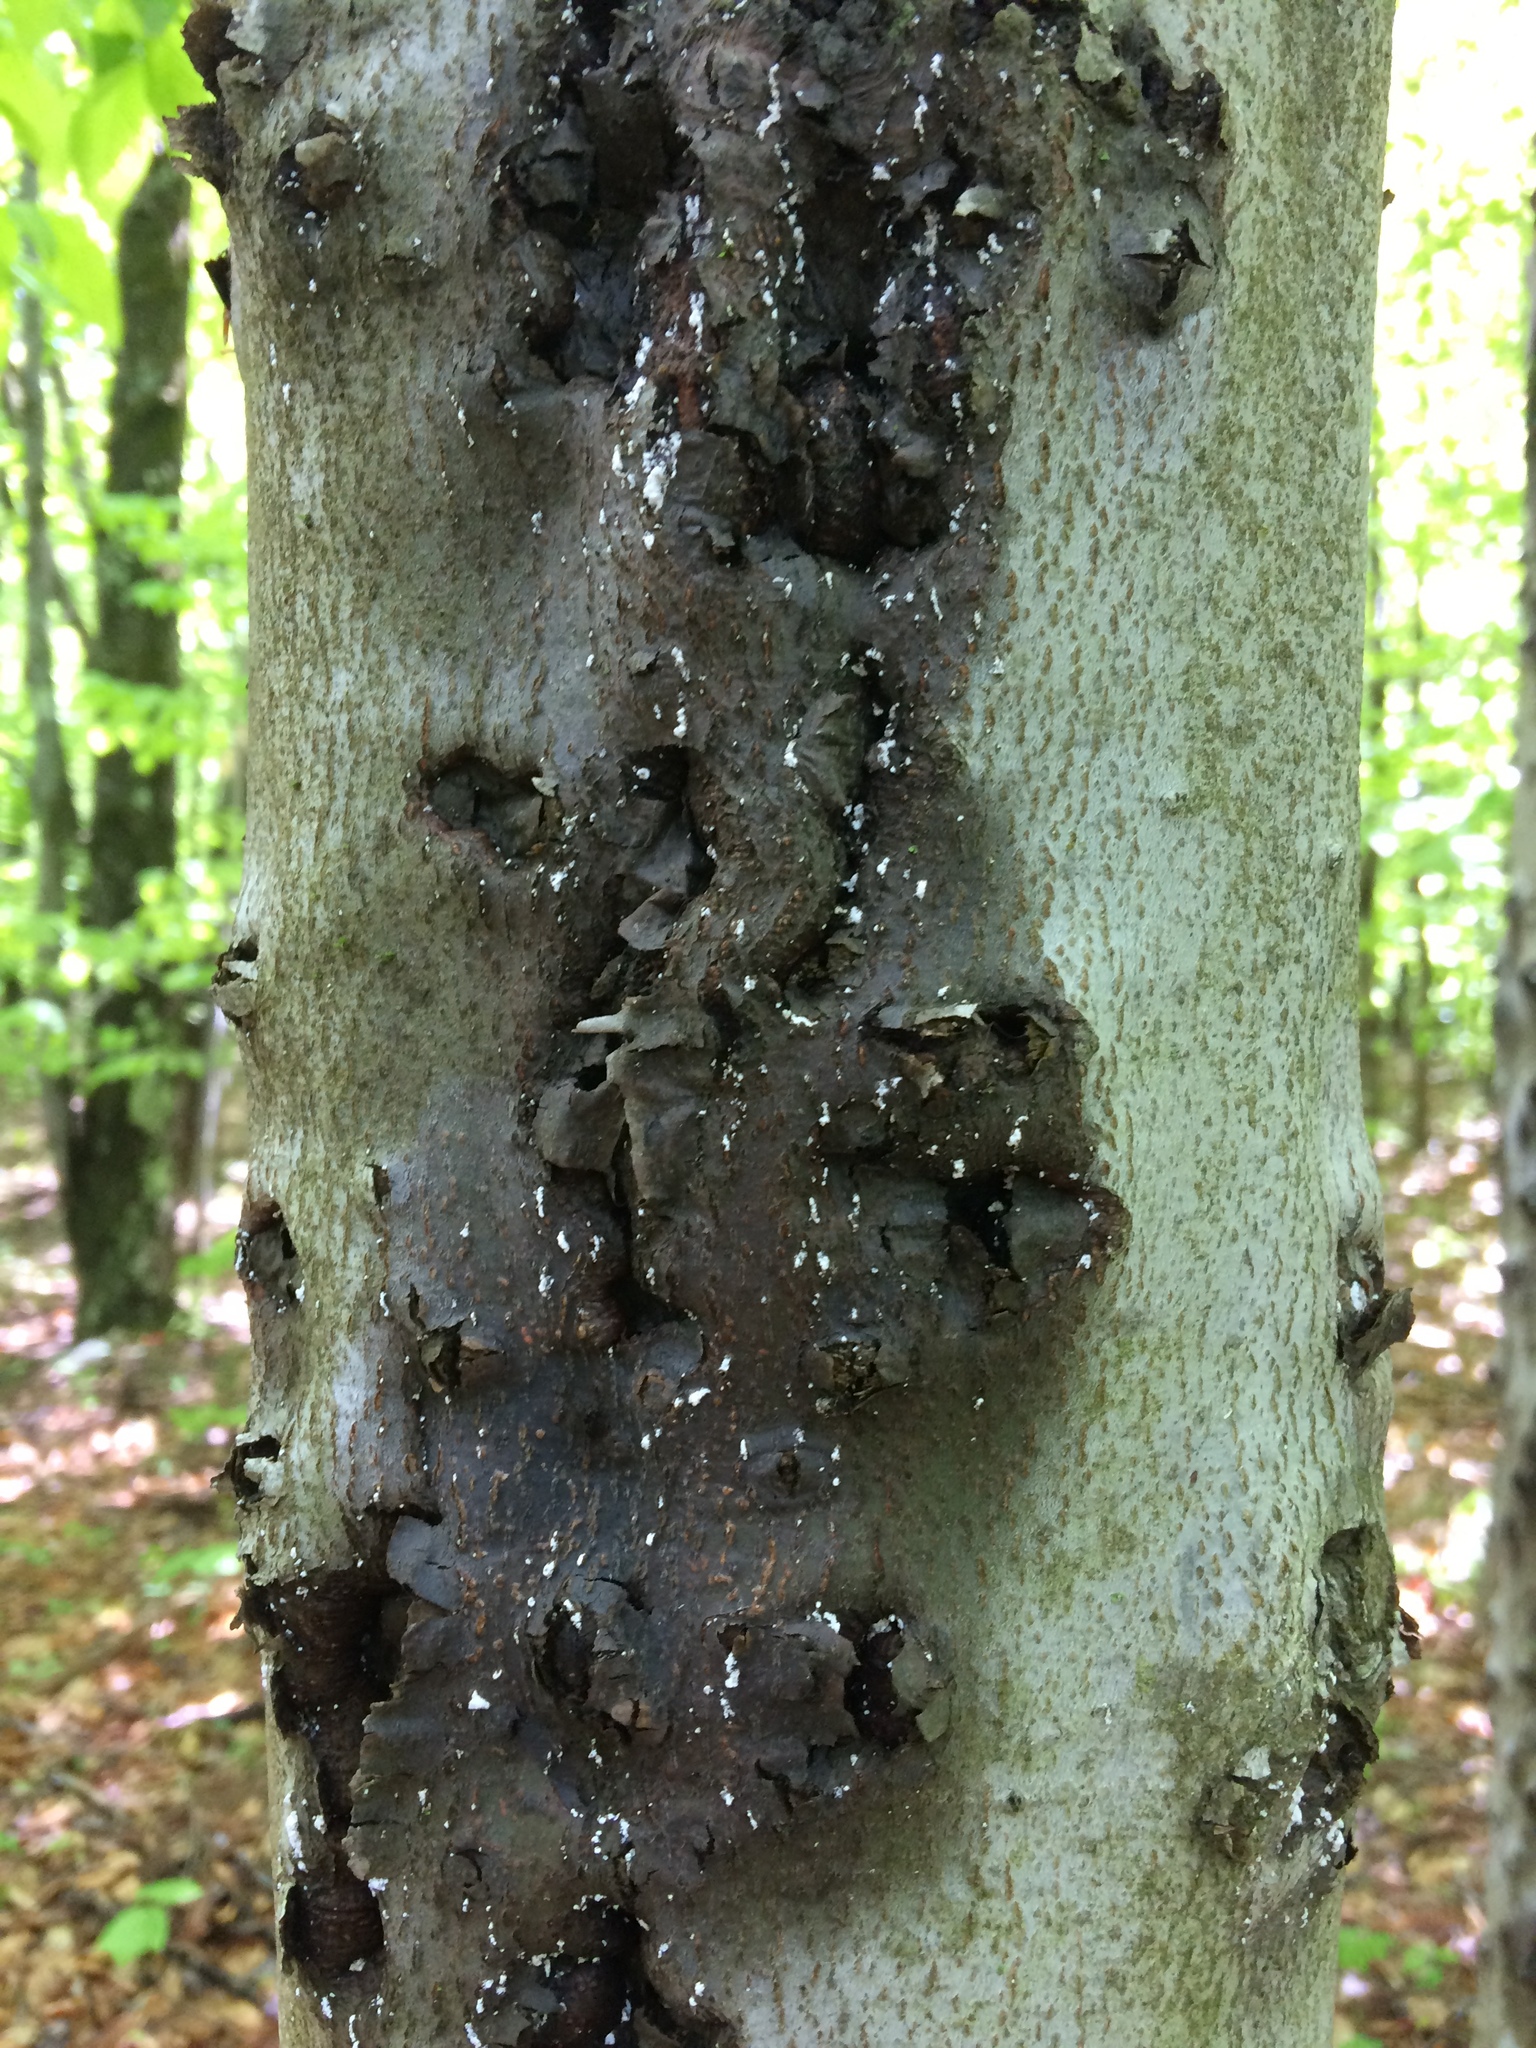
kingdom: Animalia
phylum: Arthropoda
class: Insecta
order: Hemiptera
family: Eriococcidae
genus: Cryptococcus
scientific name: Cryptococcus fagisuga
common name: Beech scale
